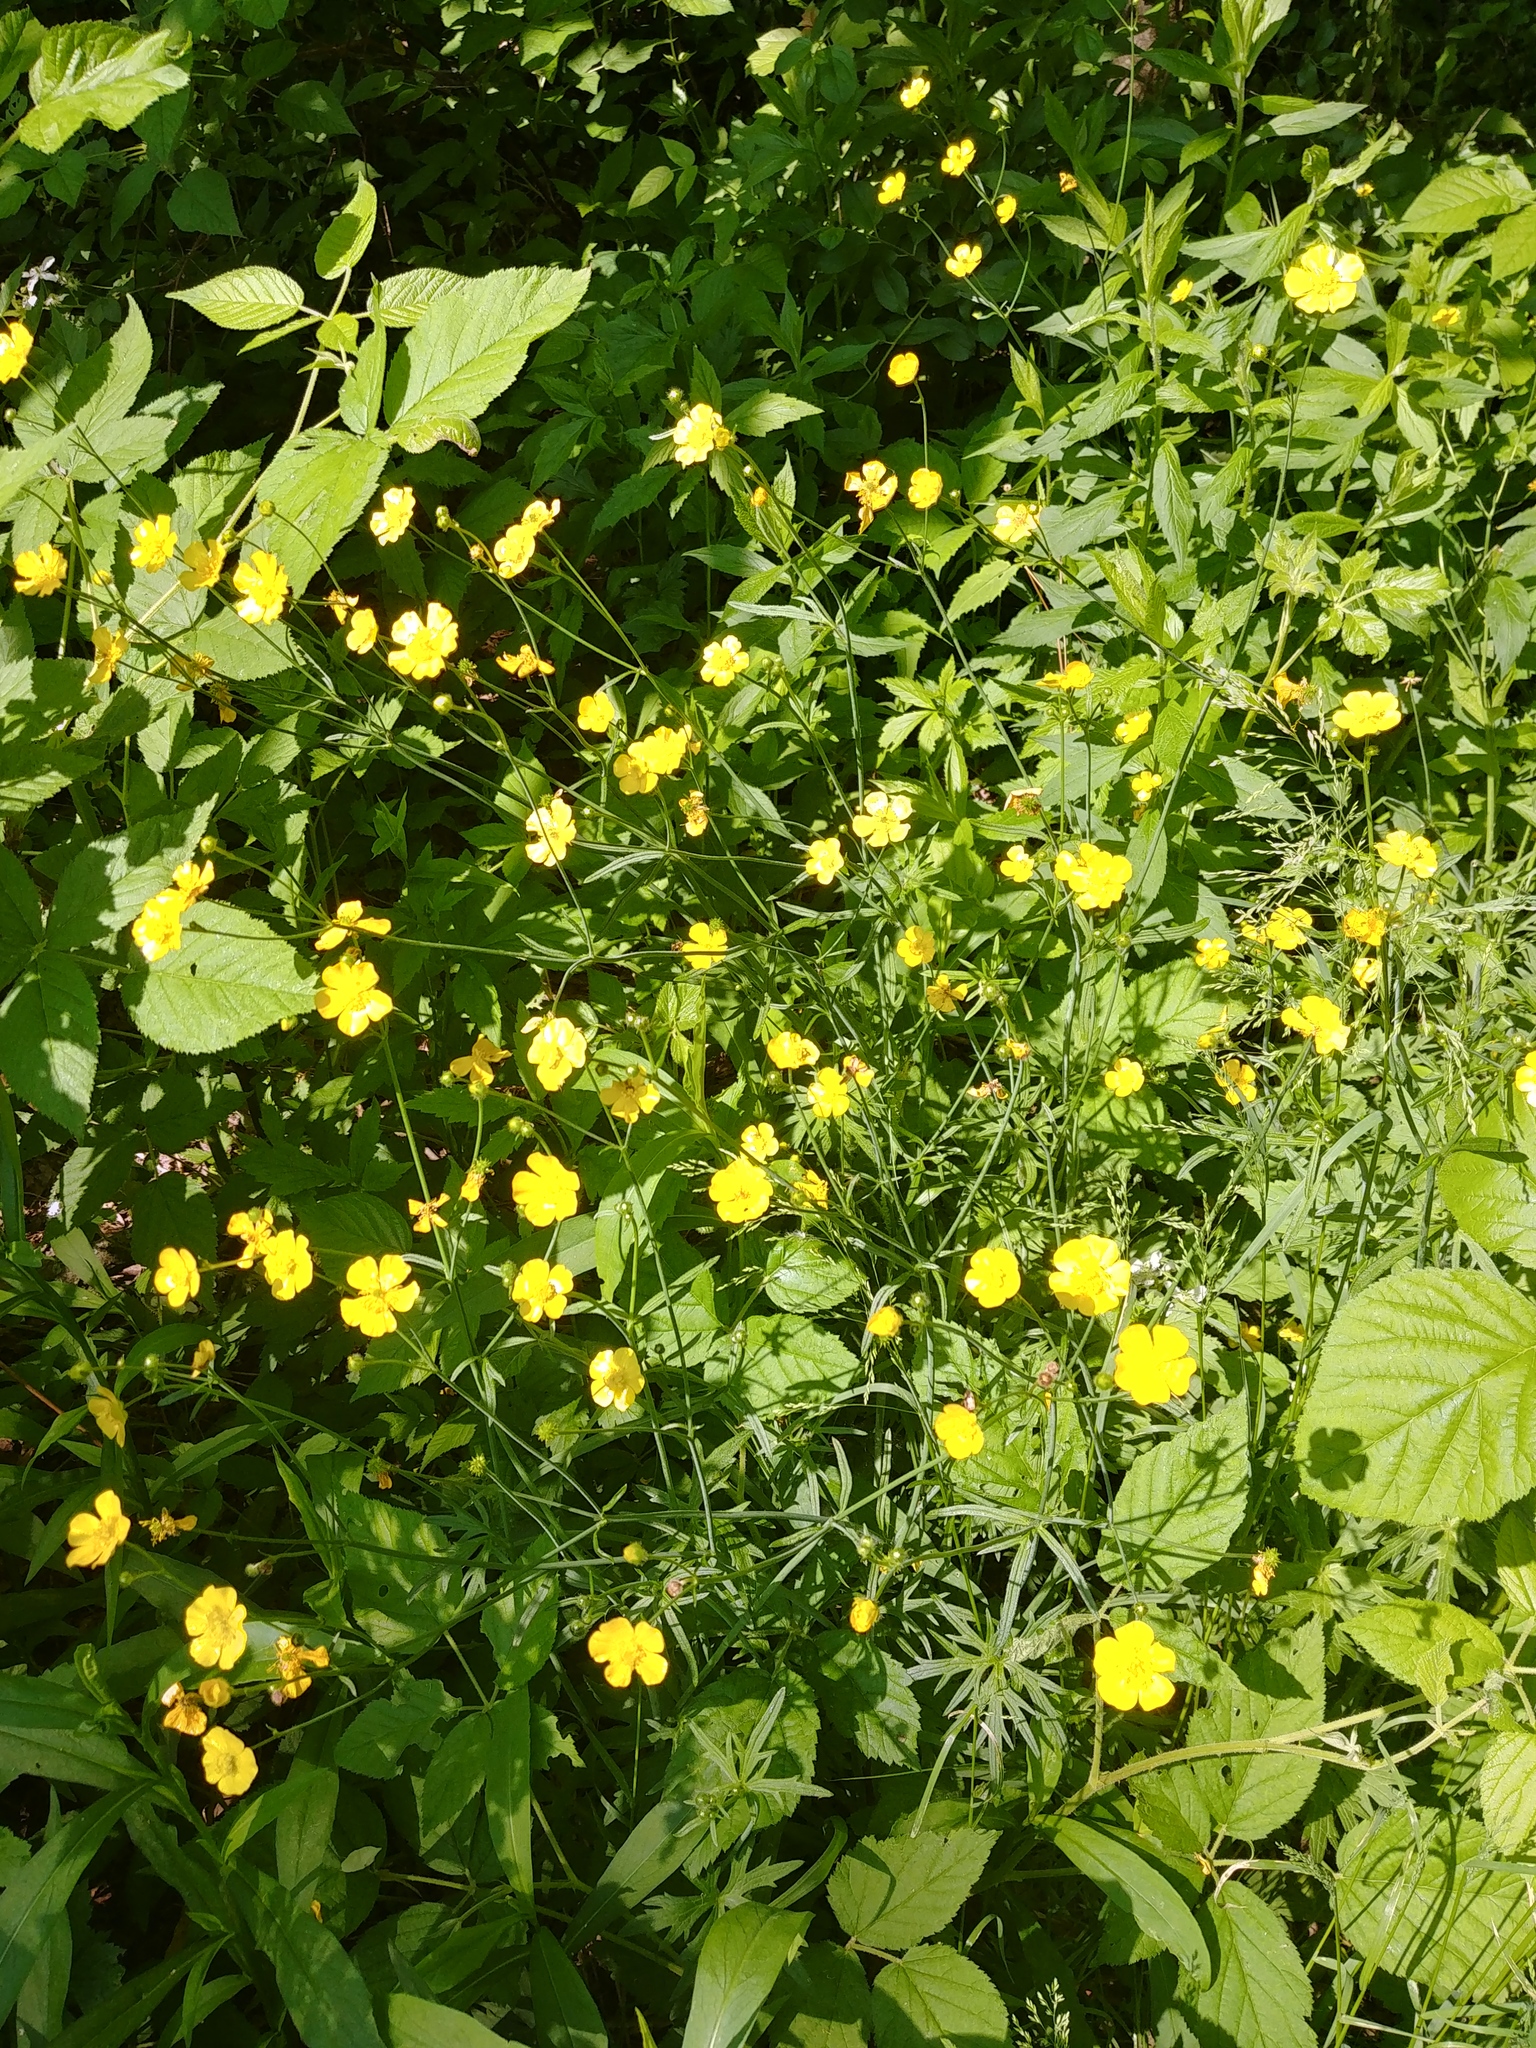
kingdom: Plantae
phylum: Tracheophyta
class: Magnoliopsida
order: Ranunculales
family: Ranunculaceae
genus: Ranunculus
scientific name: Ranunculus acris
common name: Meadow buttercup
